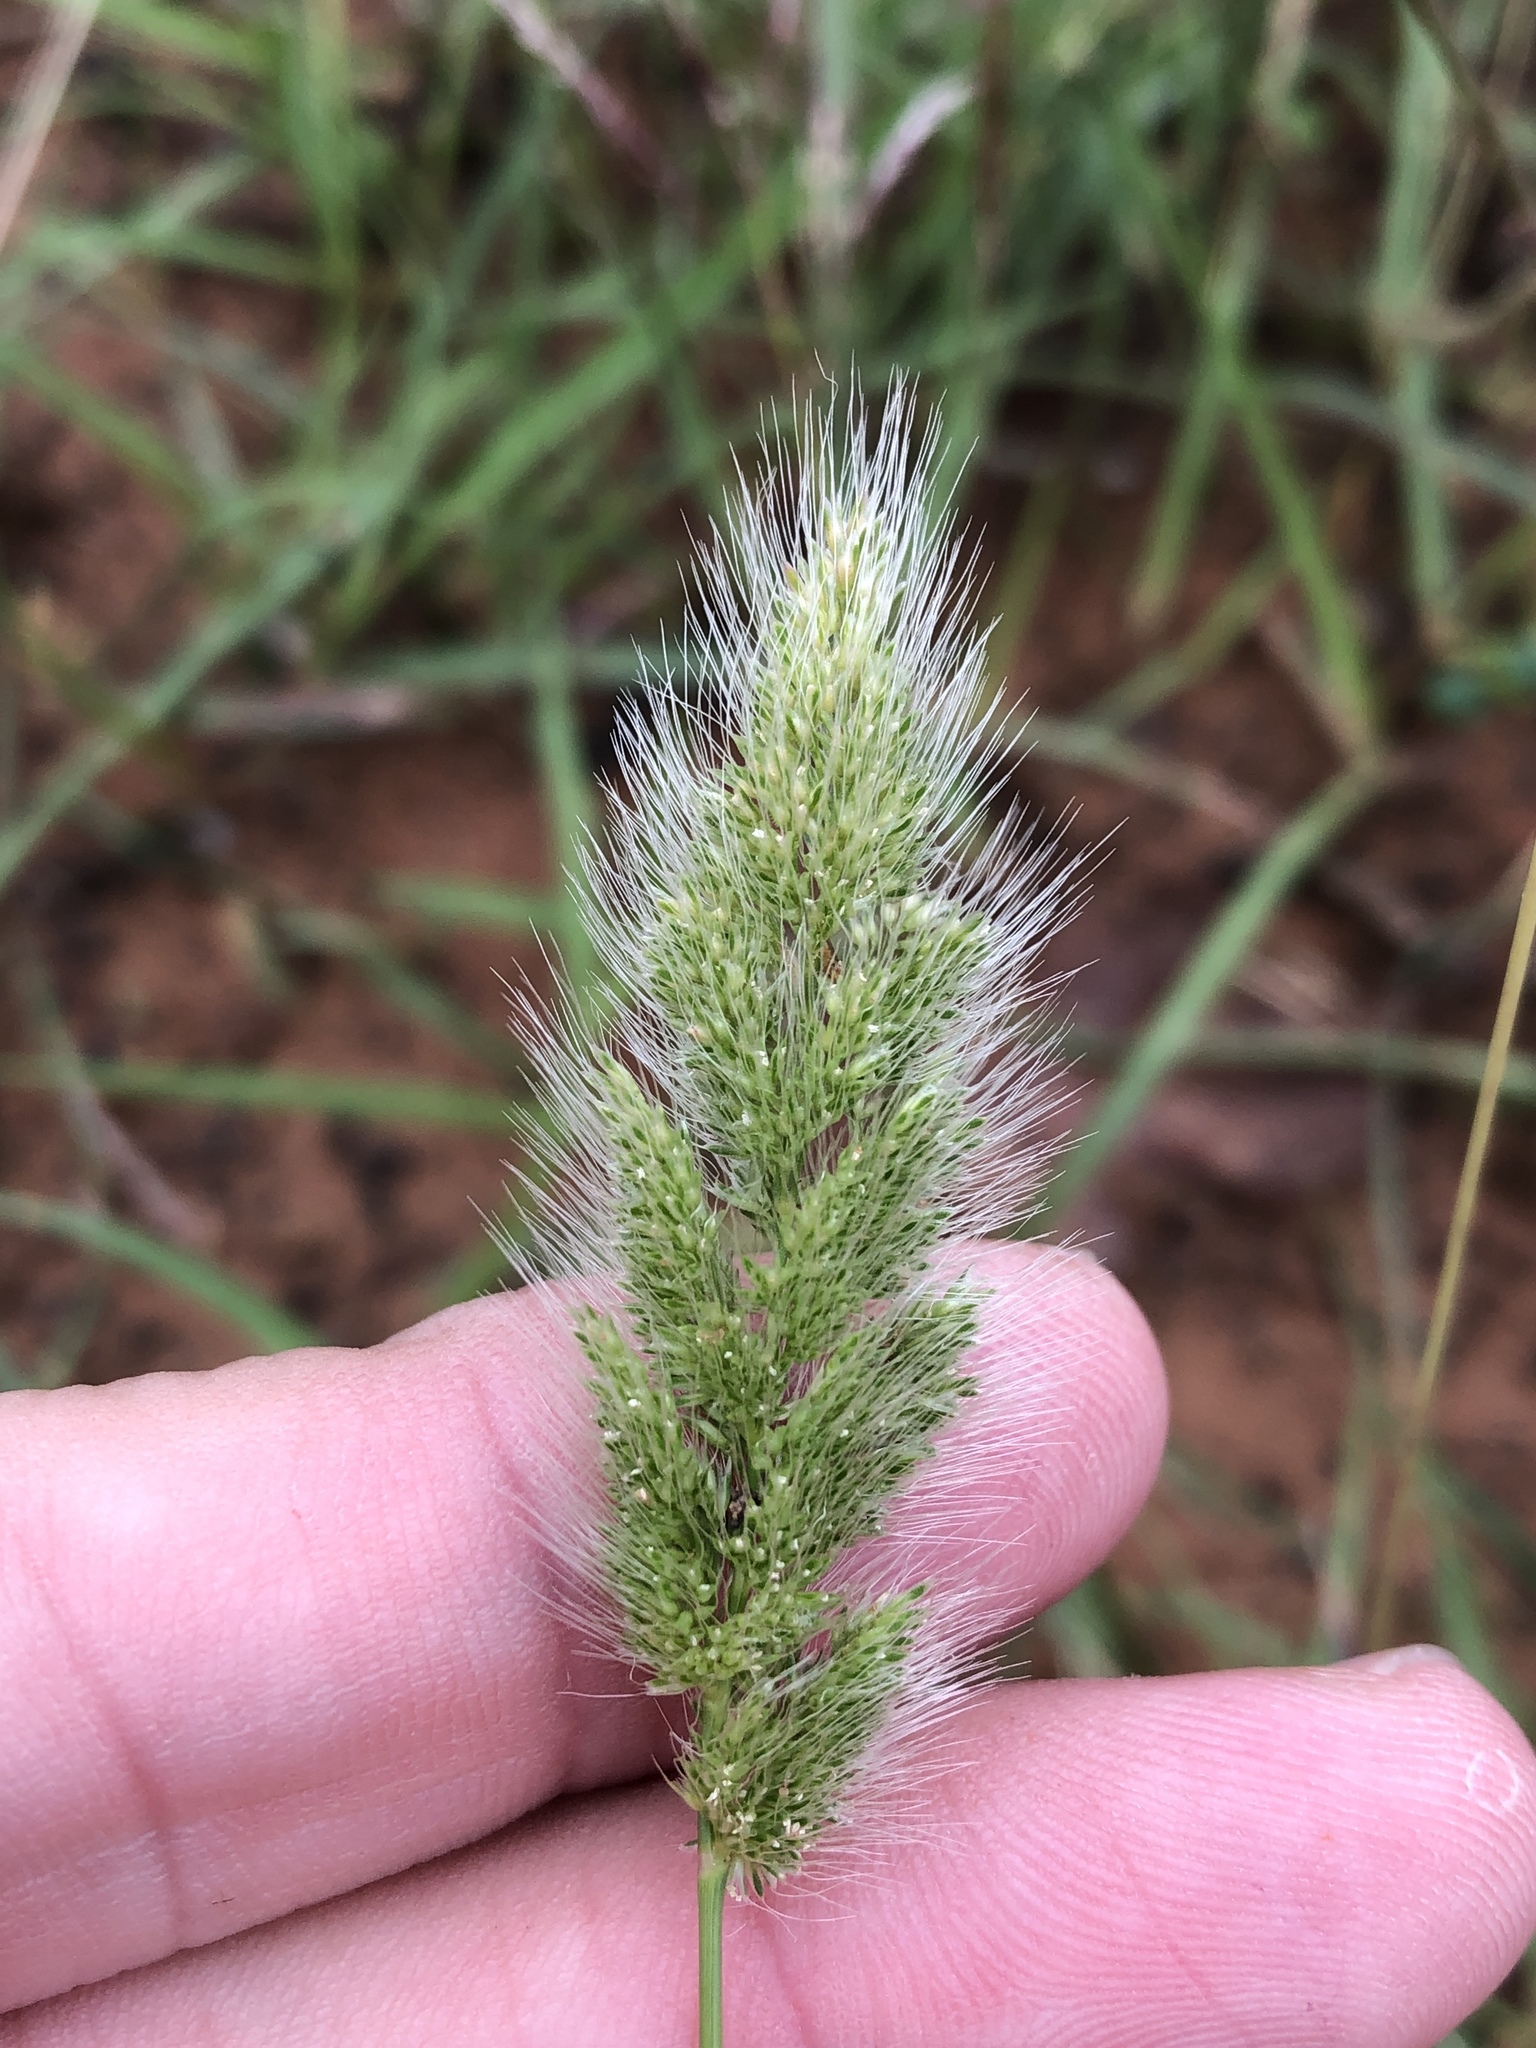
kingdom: Plantae
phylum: Tracheophyta
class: Liliopsida
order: Poales
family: Poaceae
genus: Polypogon
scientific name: Polypogon monspeliensis
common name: Annual rabbitsfoot grass
